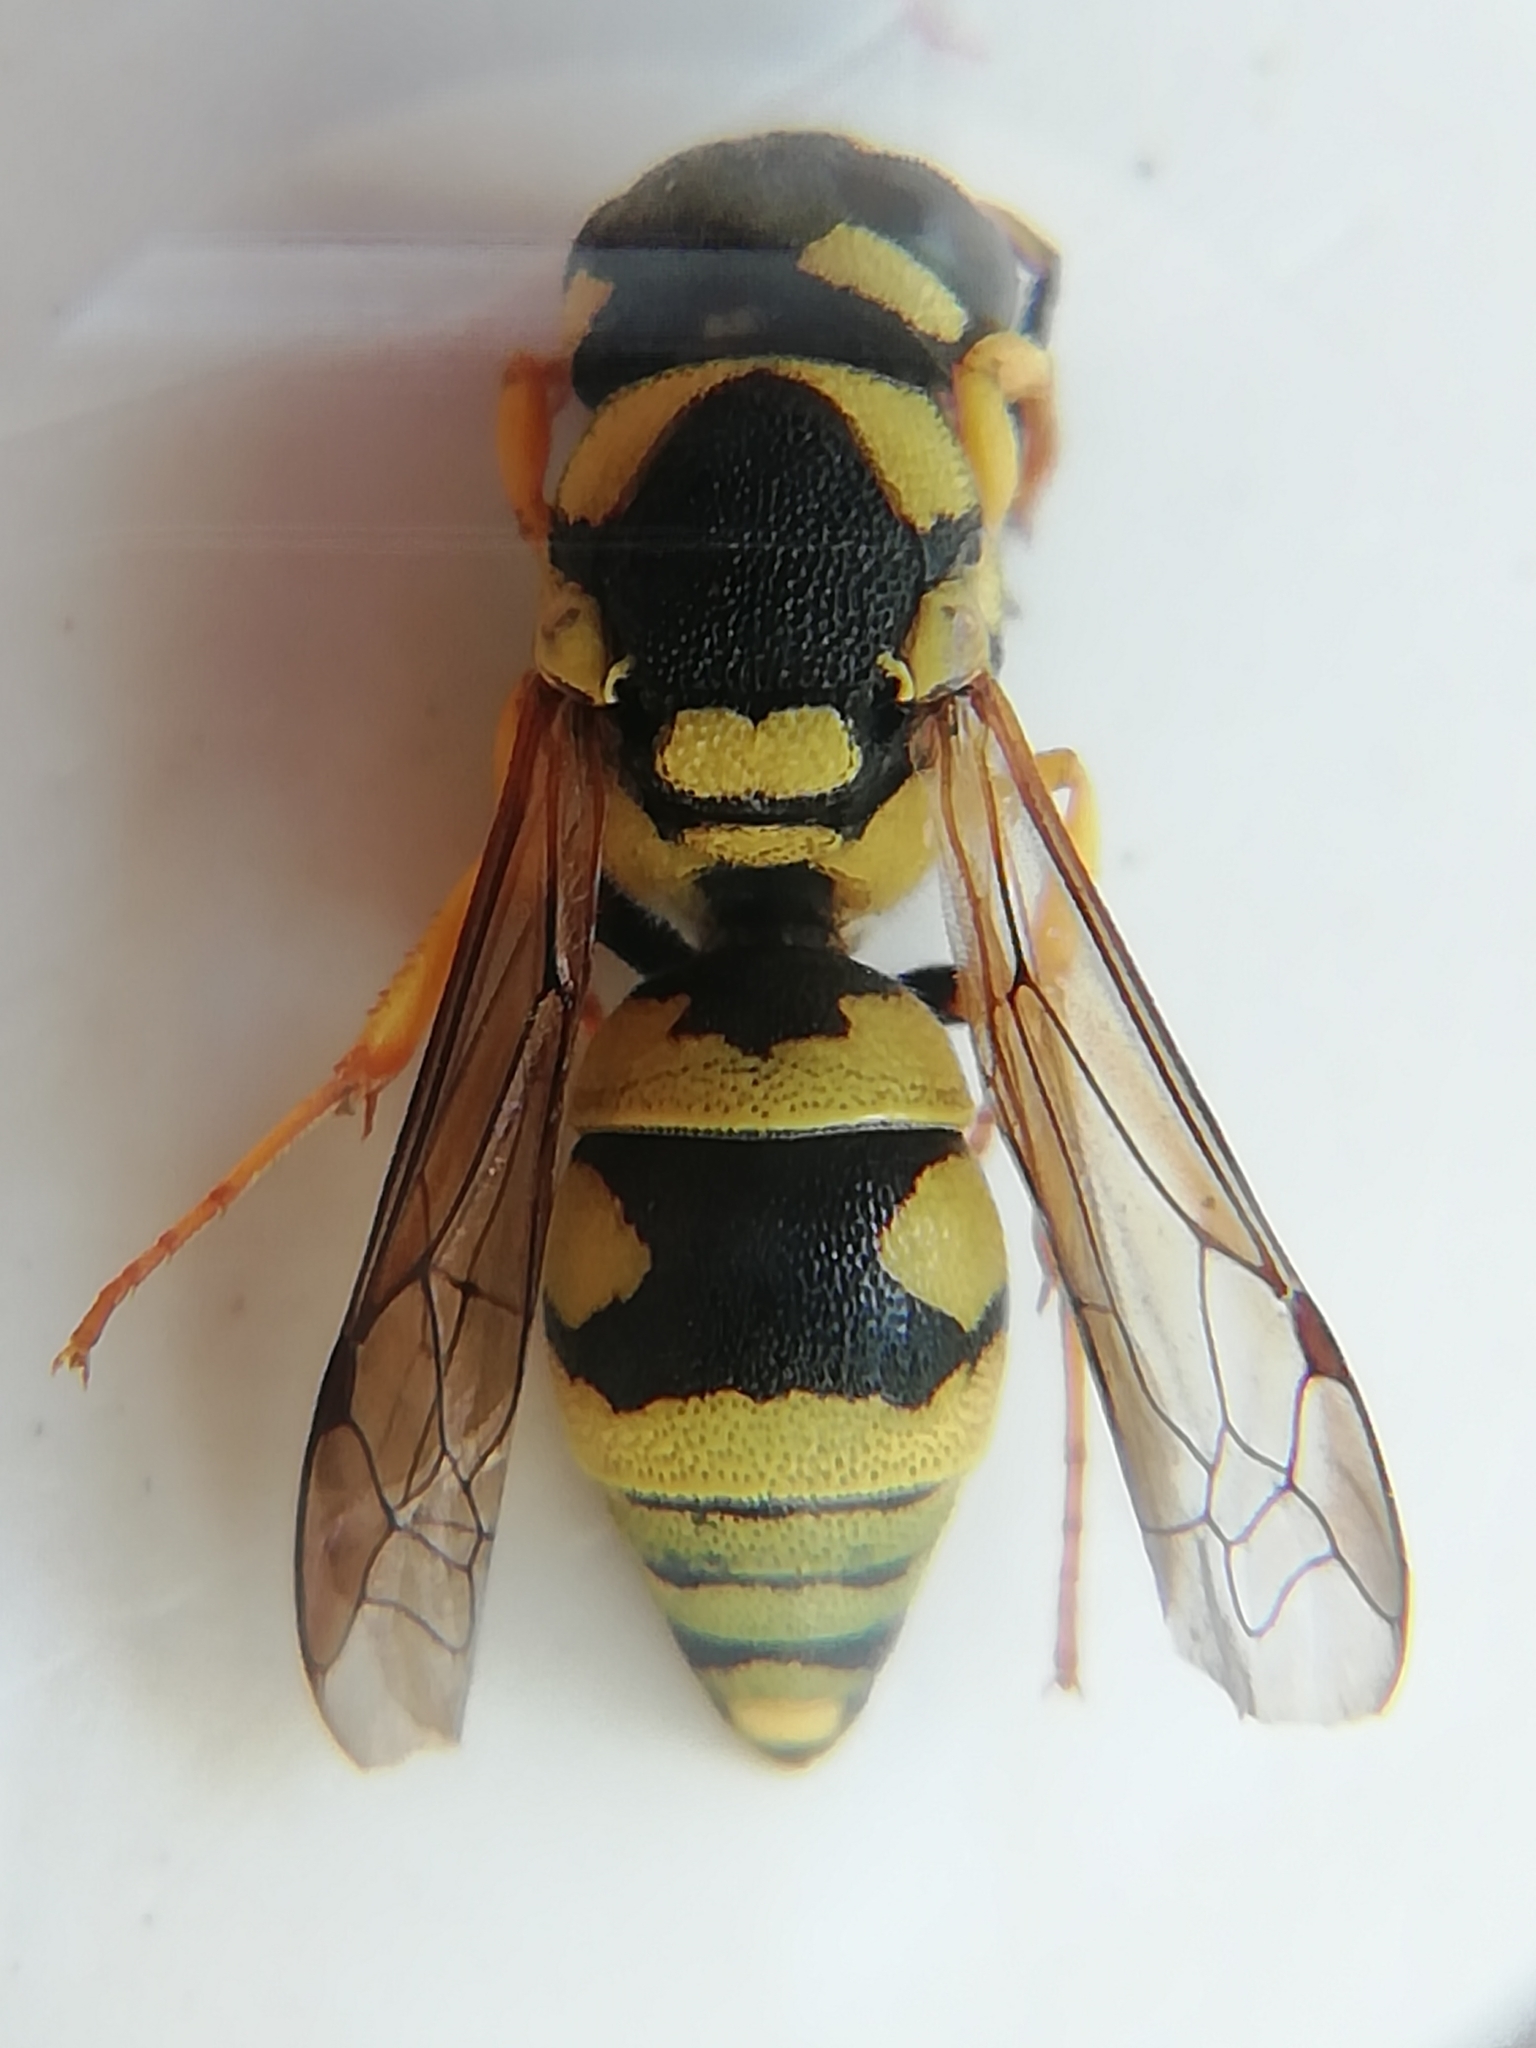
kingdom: Animalia
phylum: Arthropoda
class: Insecta
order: Hymenoptera
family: Eumenidae
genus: Antepipona
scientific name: Antepipona deflenda
